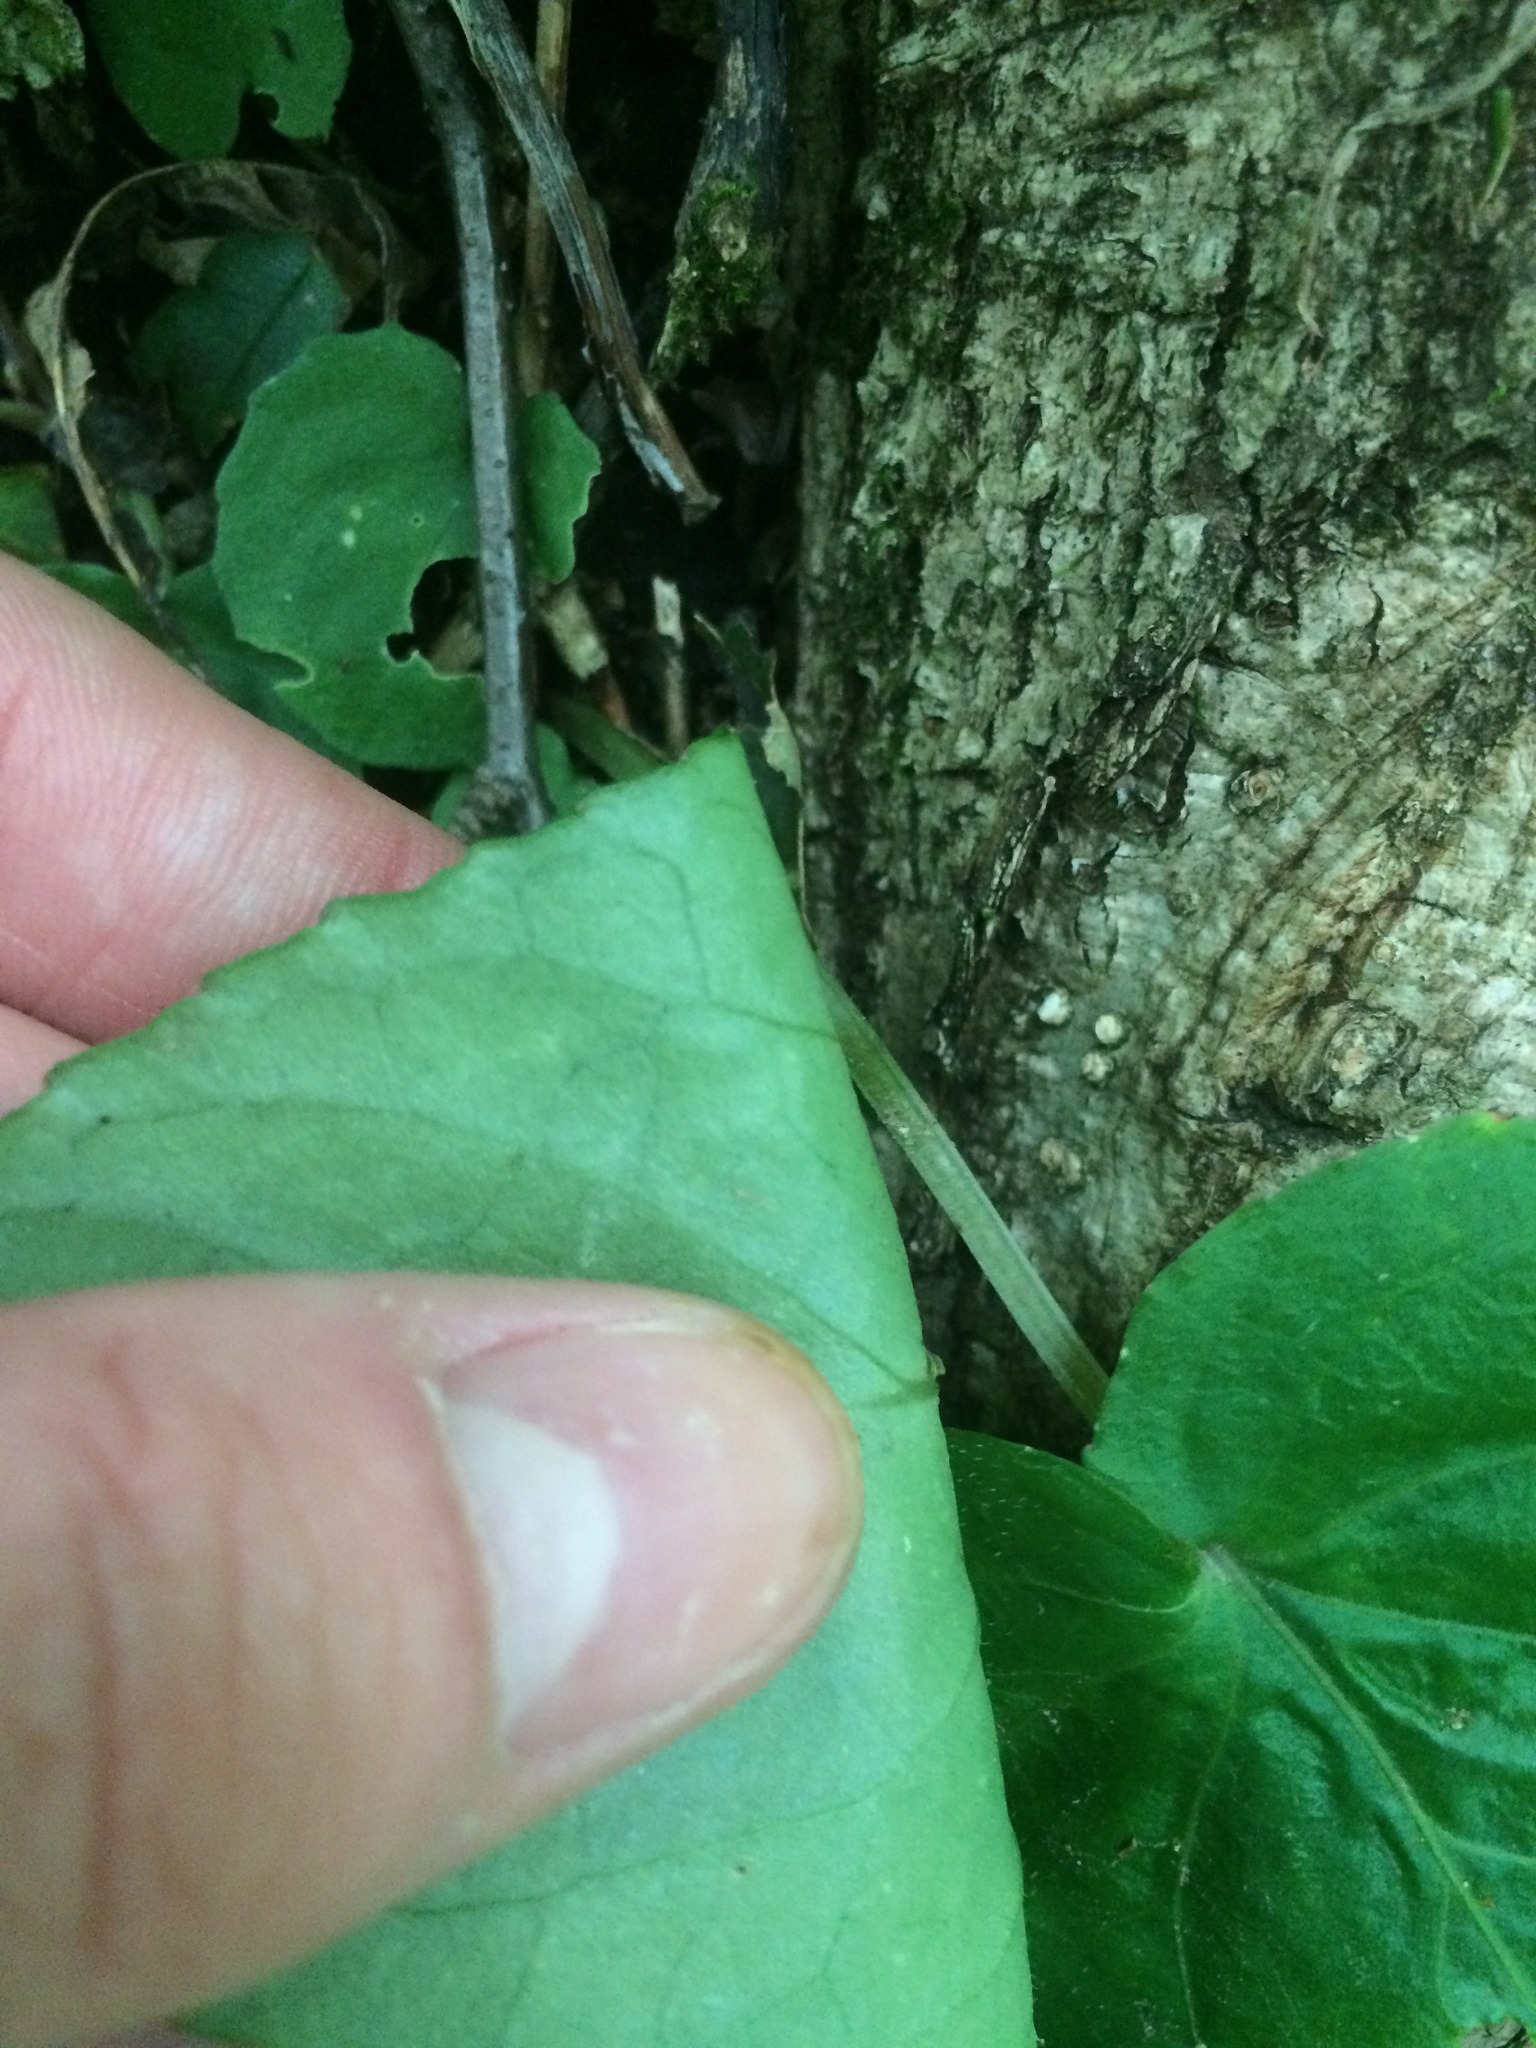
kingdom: Plantae
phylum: Tracheophyta
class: Magnoliopsida
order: Malpighiales
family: Violaceae
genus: Viola
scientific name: Viola rotundifolia
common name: Early yellow violet
